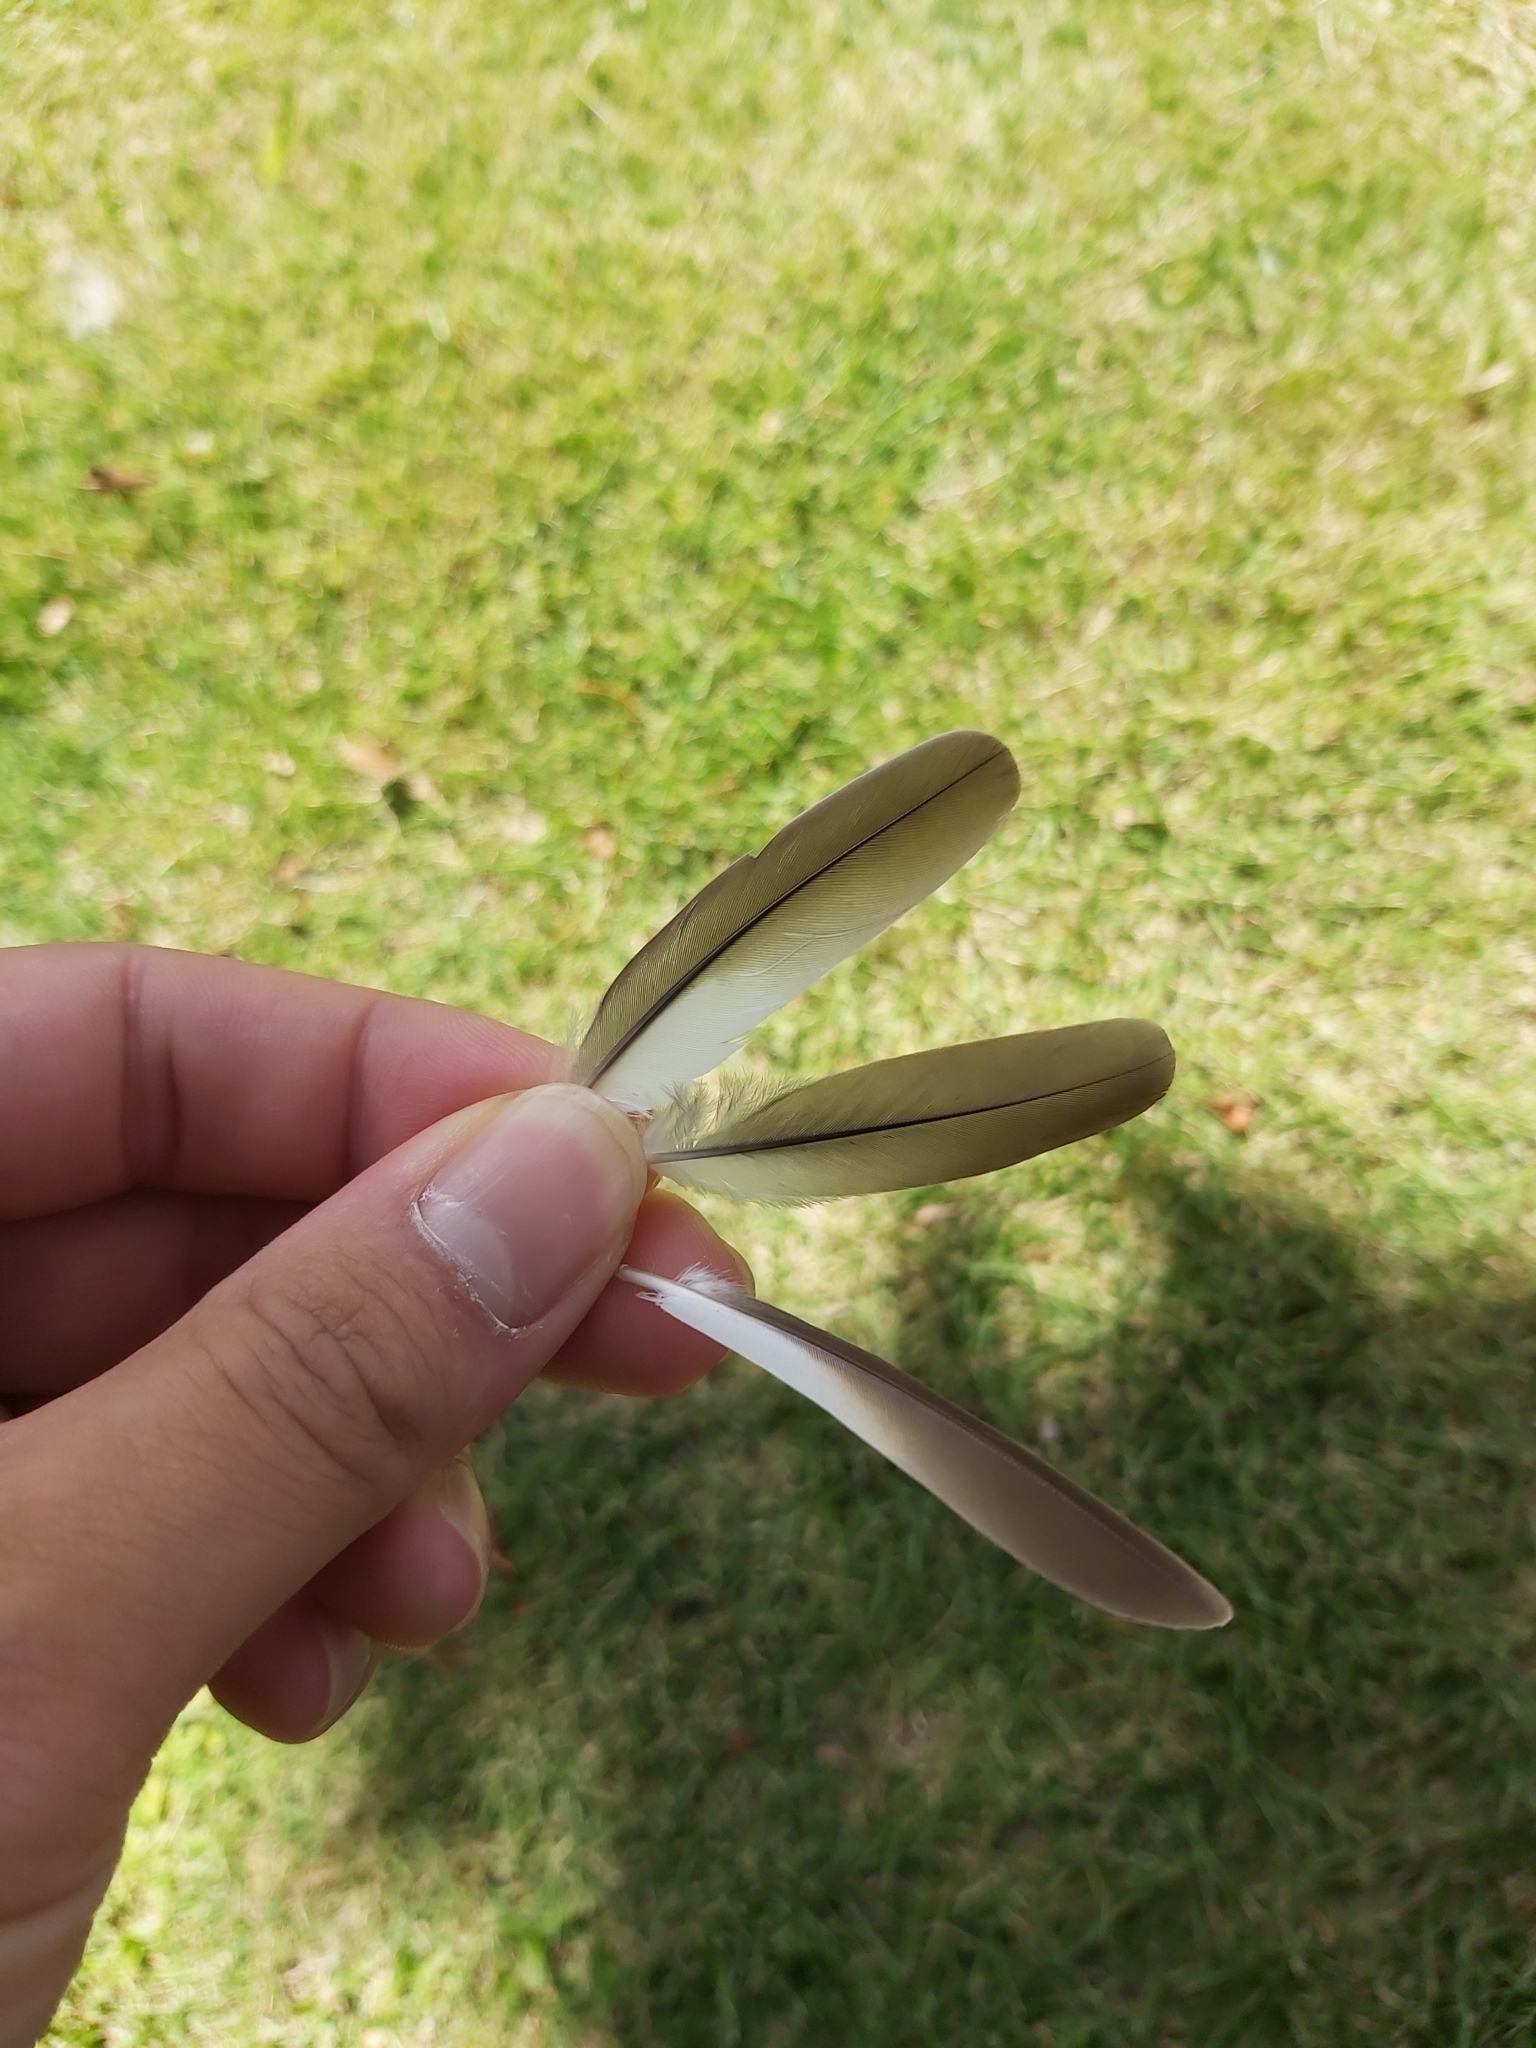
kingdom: Animalia
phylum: Chordata
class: Aves
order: Columbiformes
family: Columbidae
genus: Geopelia
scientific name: Geopelia placida
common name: Peaceful dove
